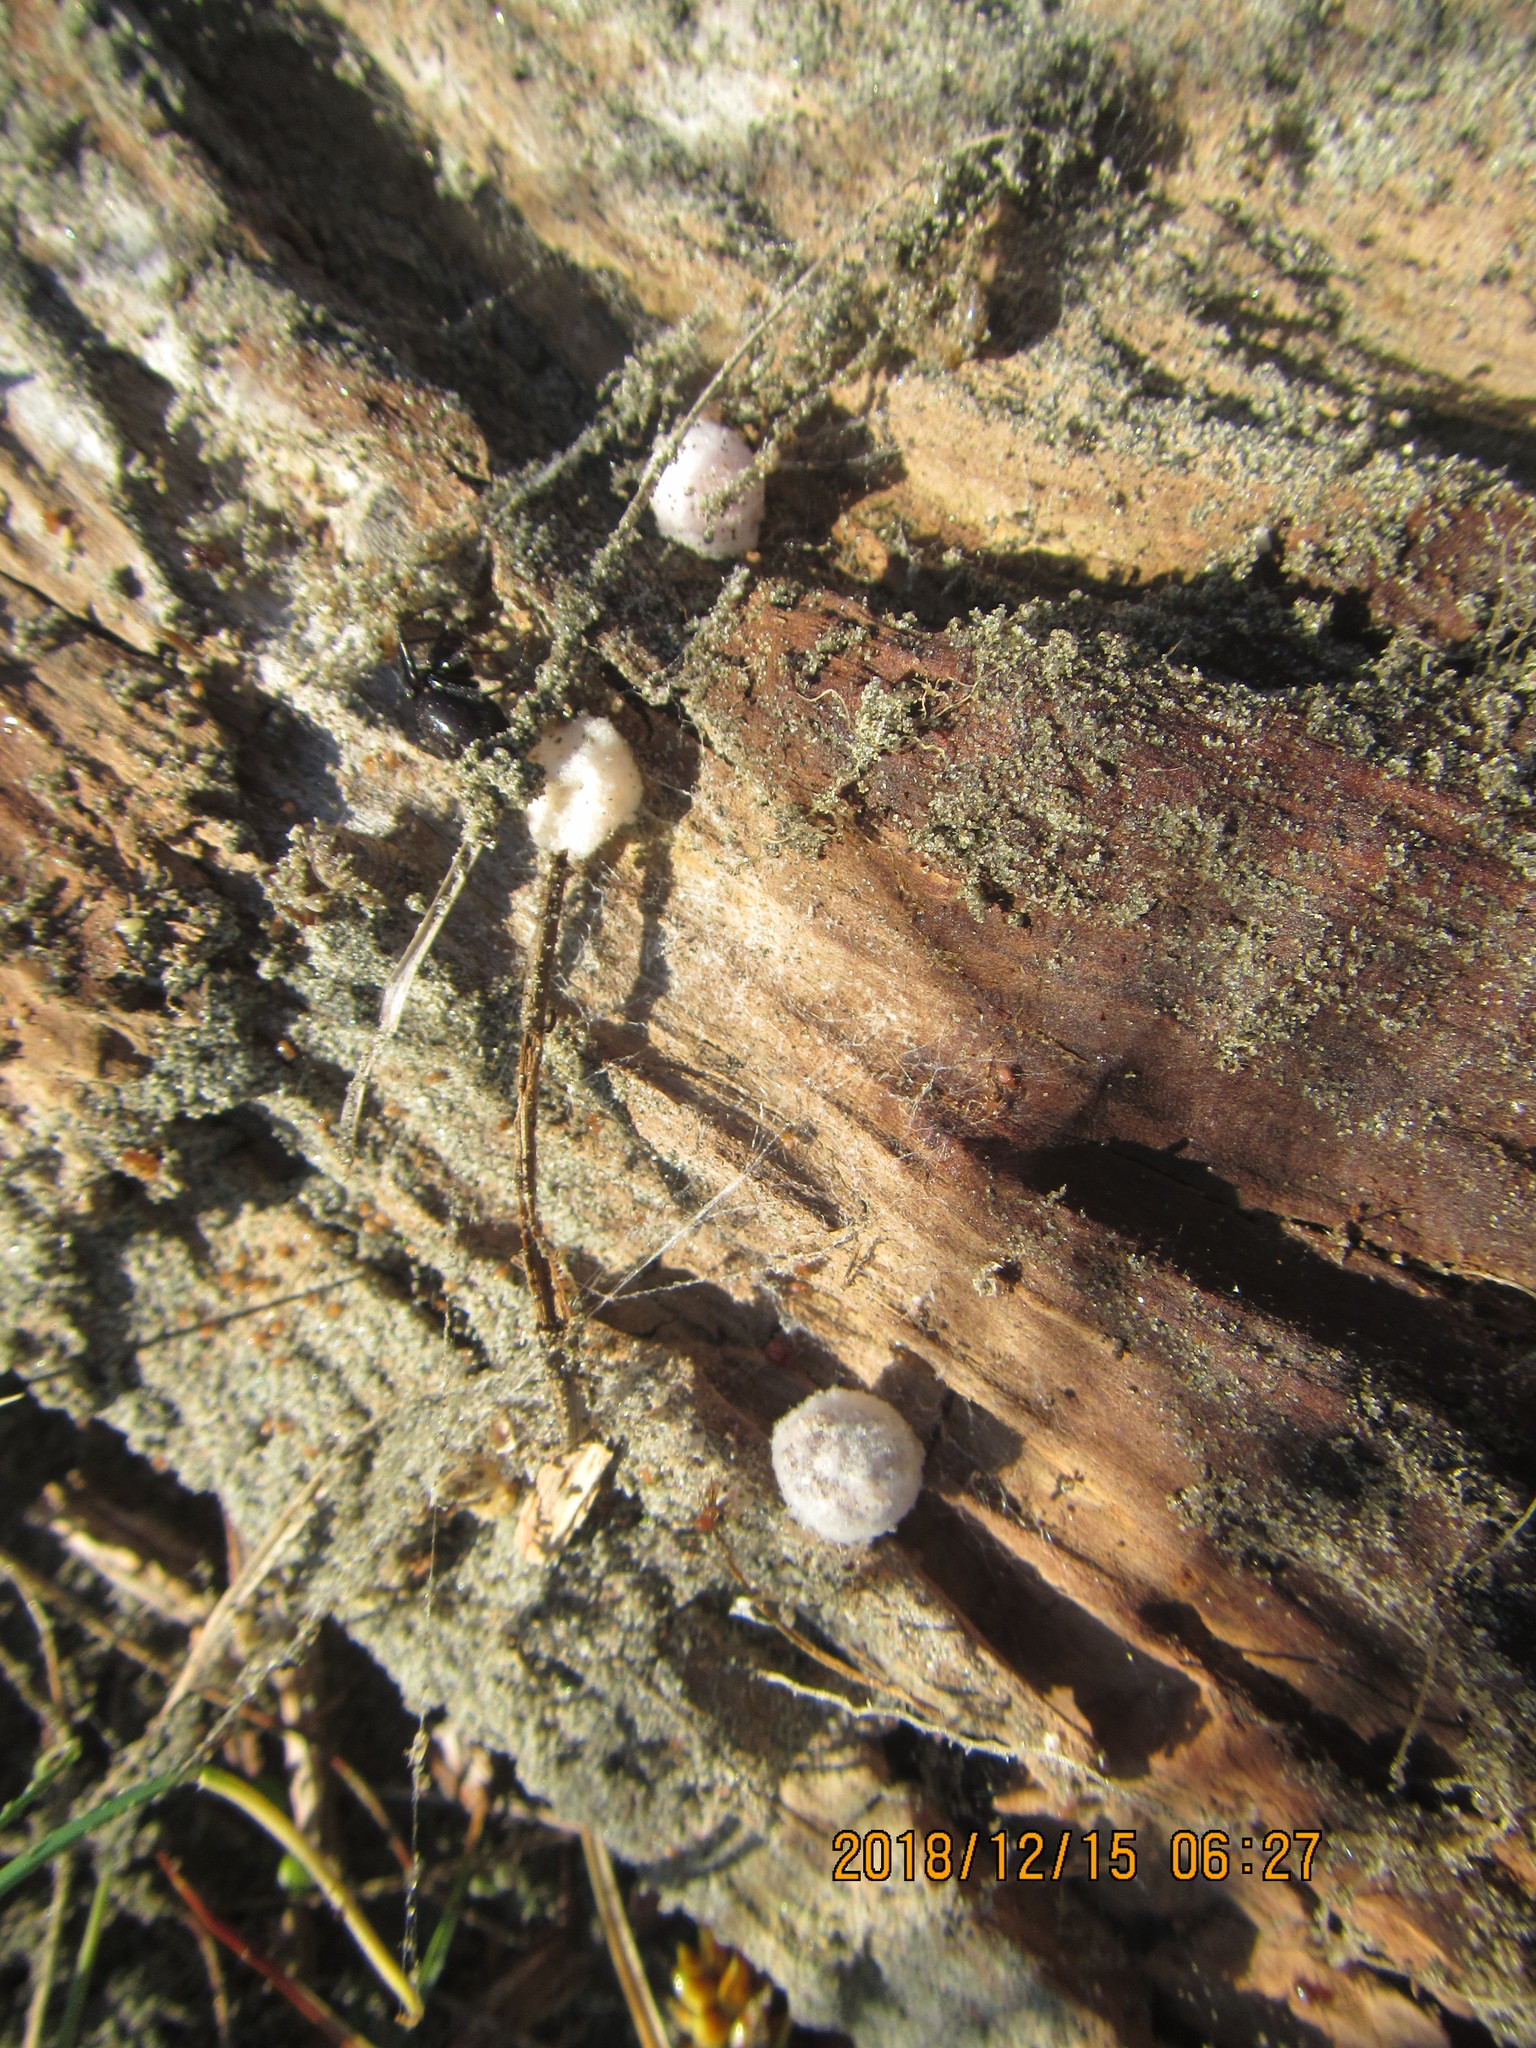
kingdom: Animalia
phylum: Arthropoda
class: Arachnida
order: Araneae
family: Theridiidae
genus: Steatoda
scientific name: Steatoda capensis
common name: Cobweb weaver
